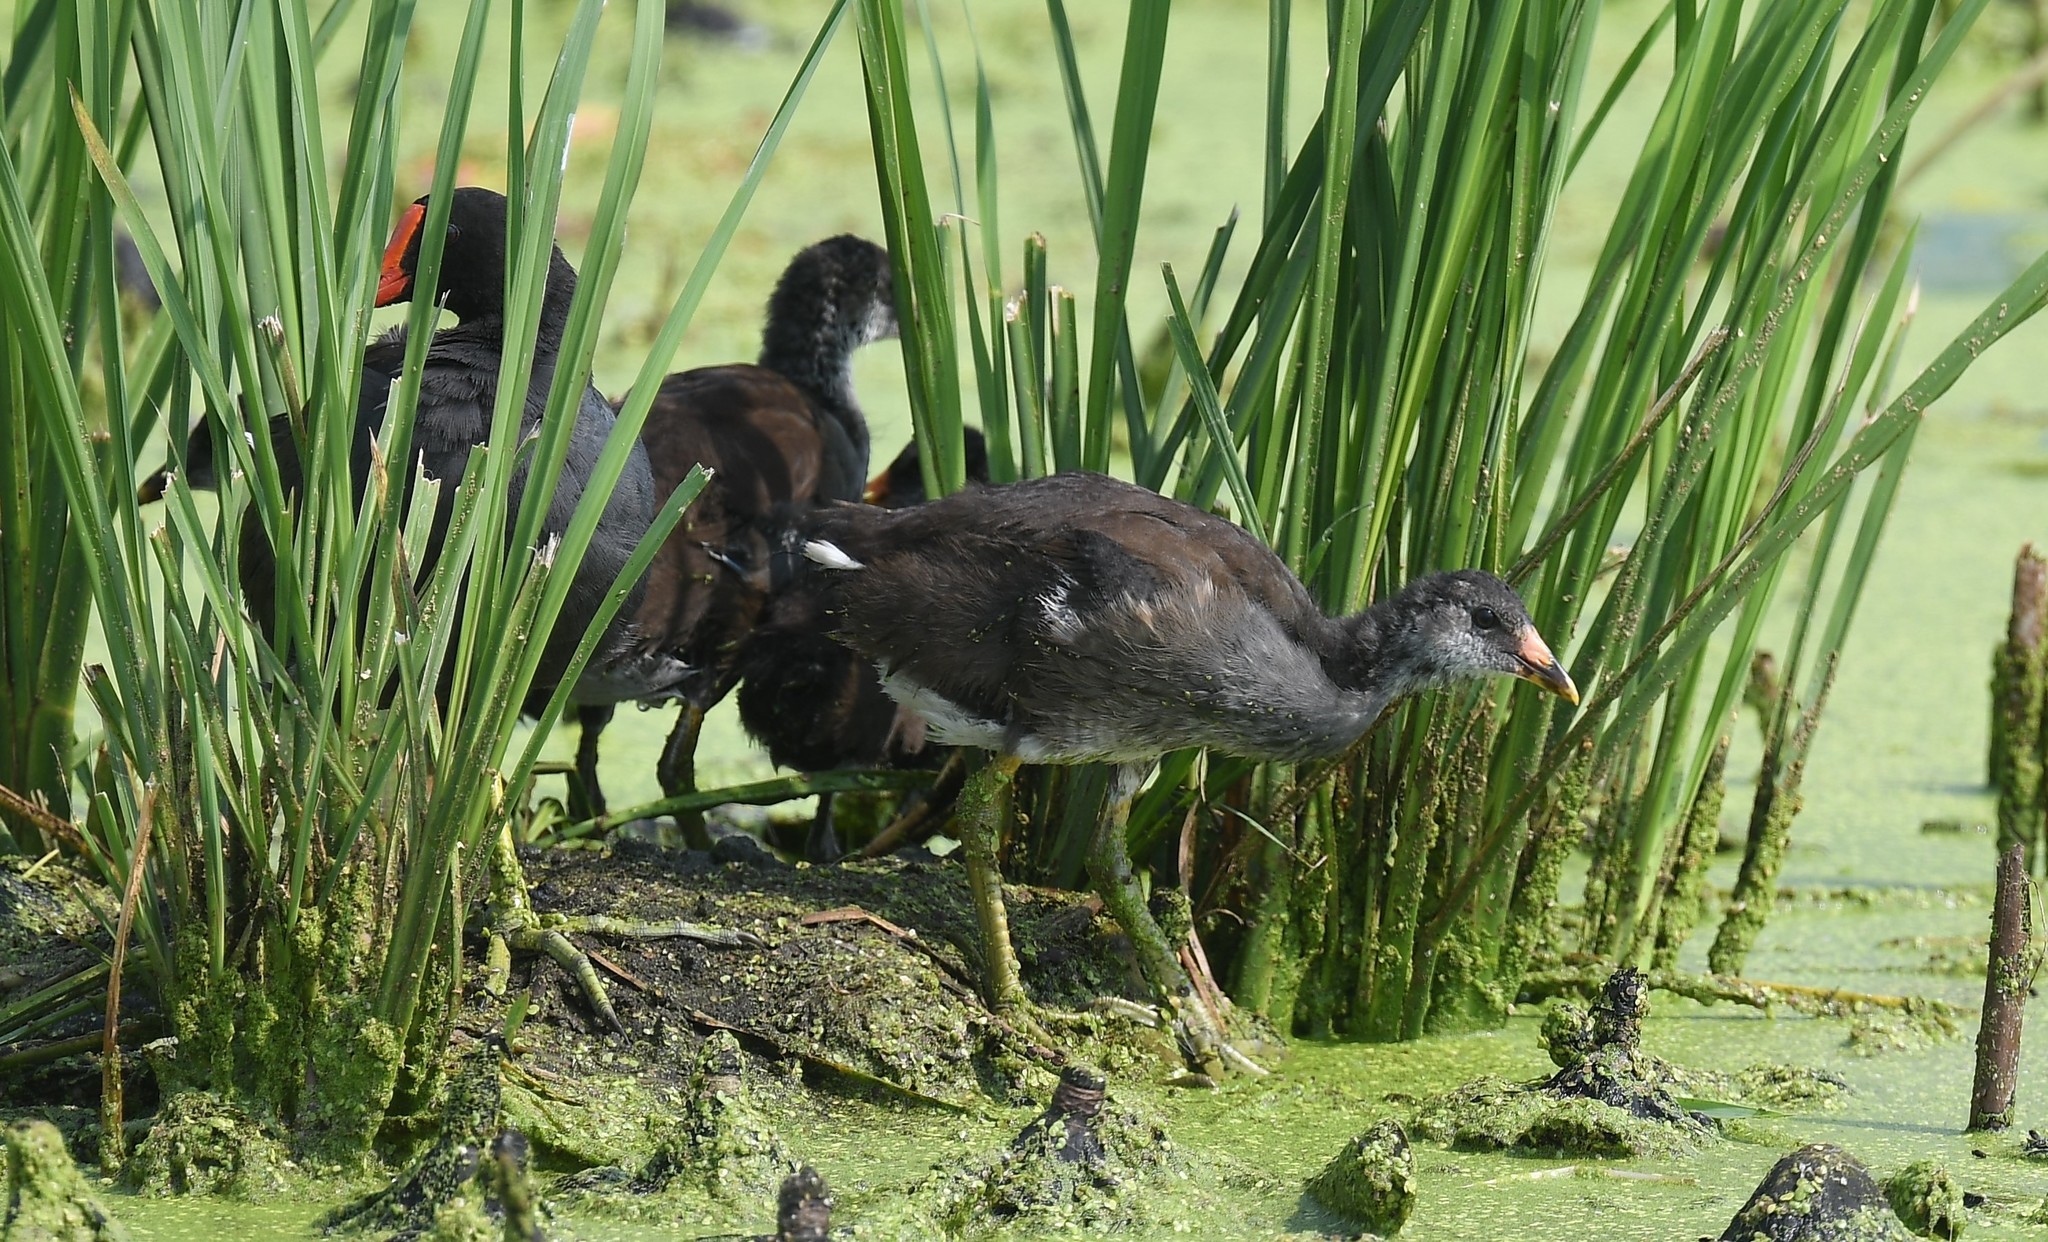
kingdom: Animalia
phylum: Chordata
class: Aves
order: Gruiformes
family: Rallidae
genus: Gallinula
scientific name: Gallinula chloropus
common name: Common moorhen
